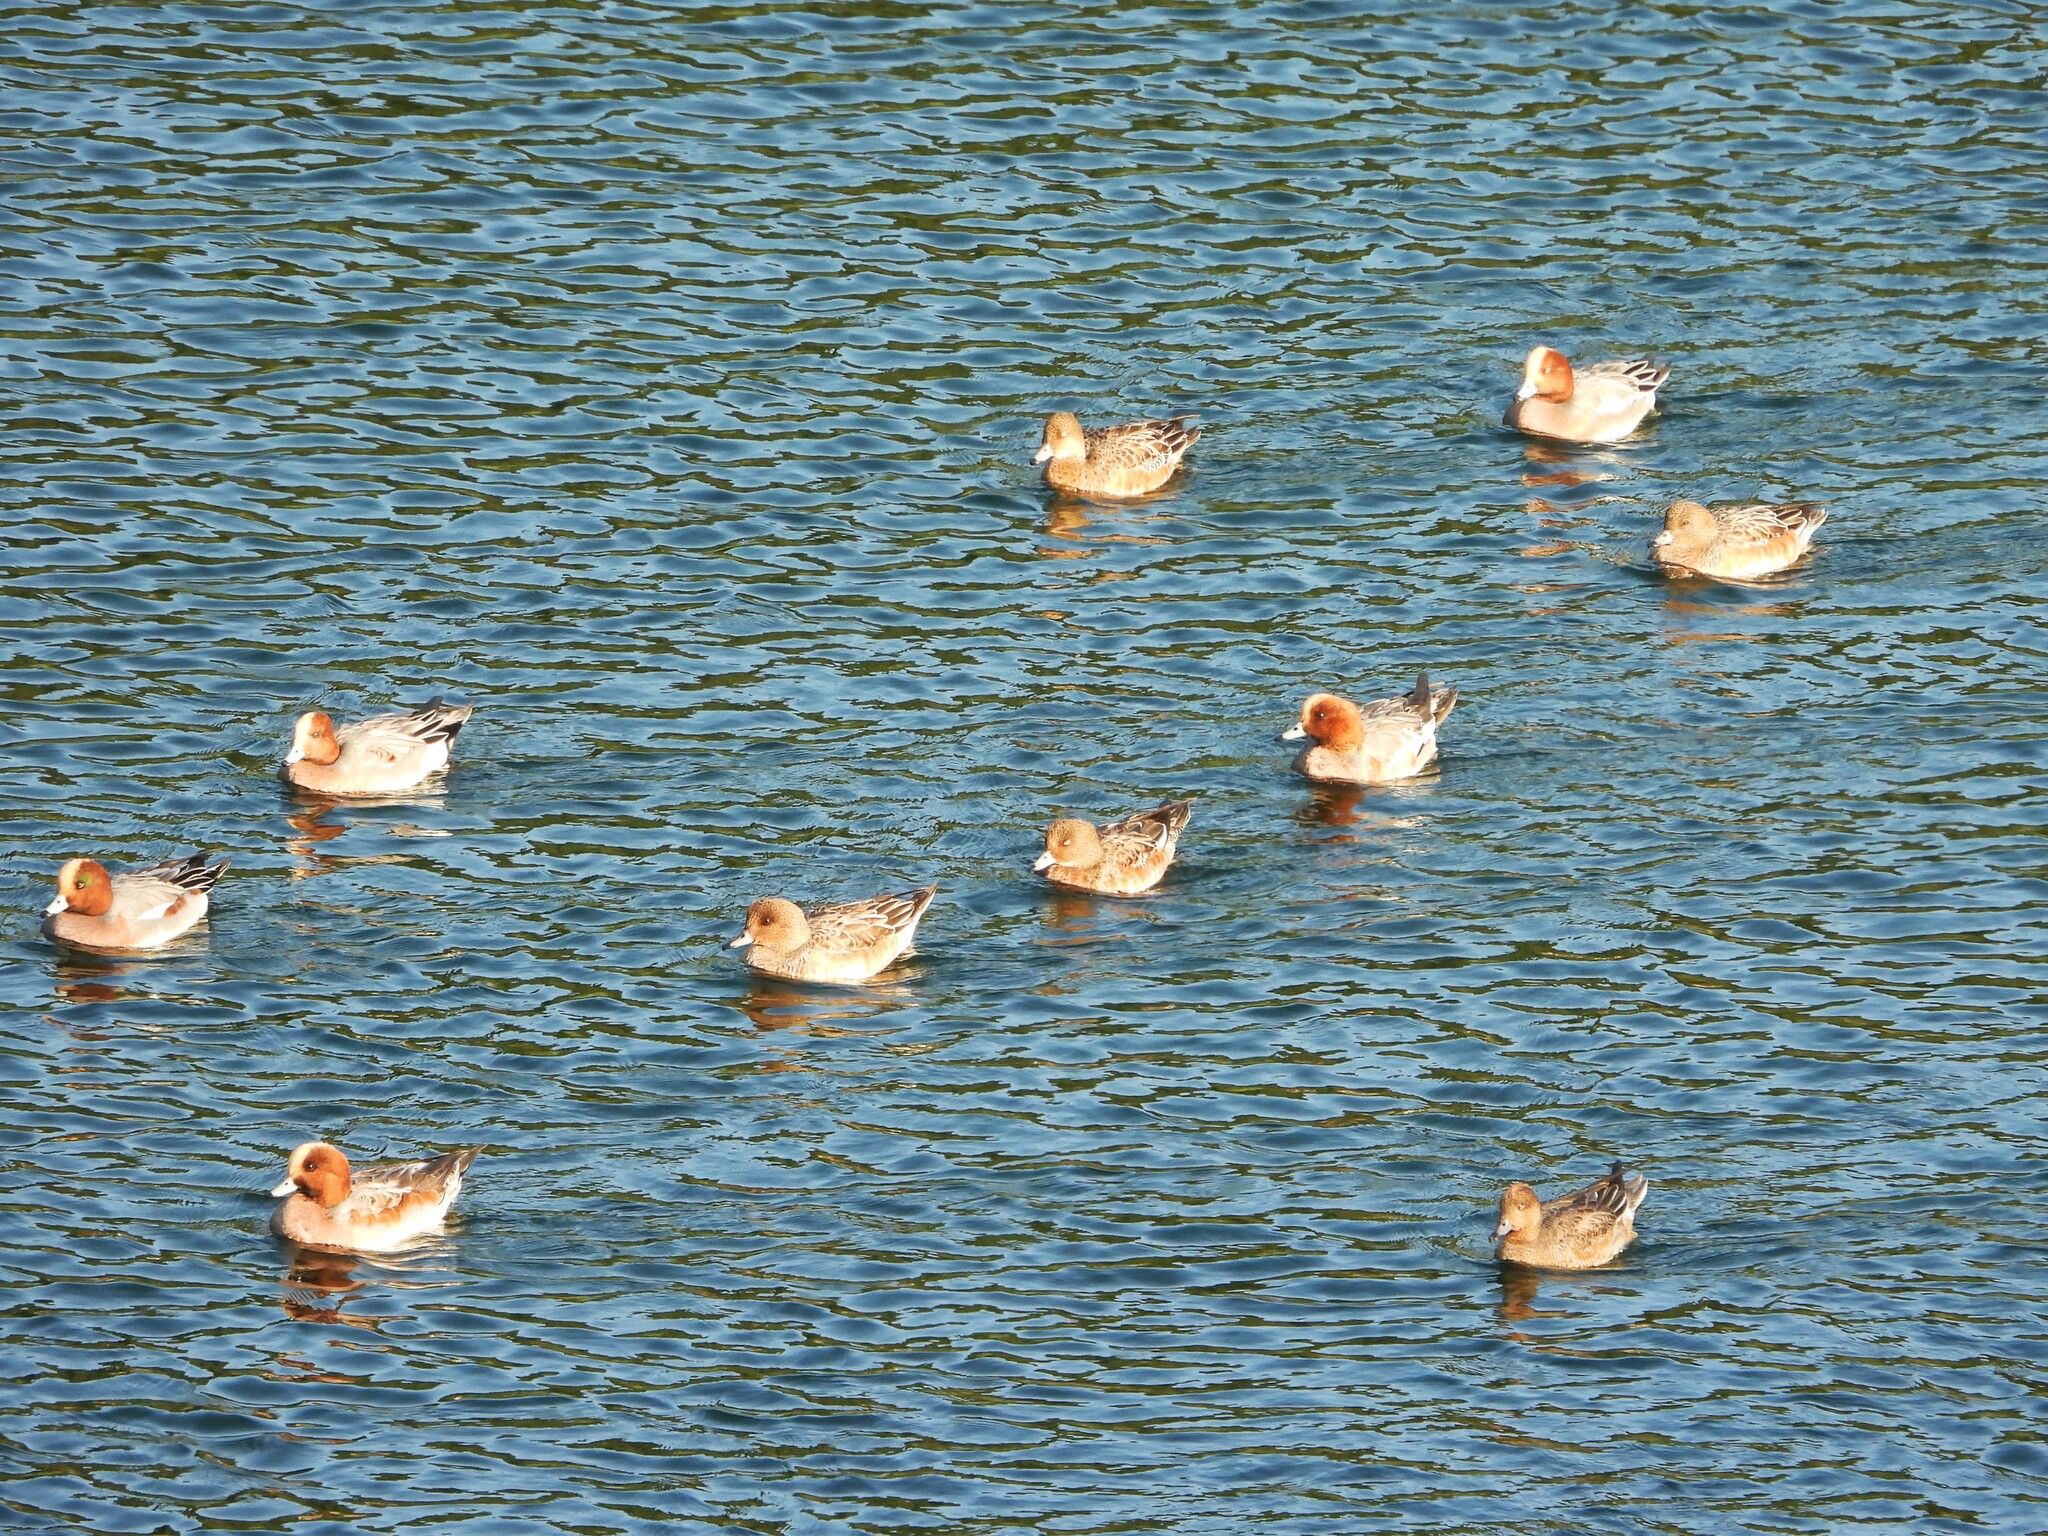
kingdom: Animalia
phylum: Chordata
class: Aves
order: Anseriformes
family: Anatidae
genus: Mareca
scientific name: Mareca penelope
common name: Eurasian wigeon
